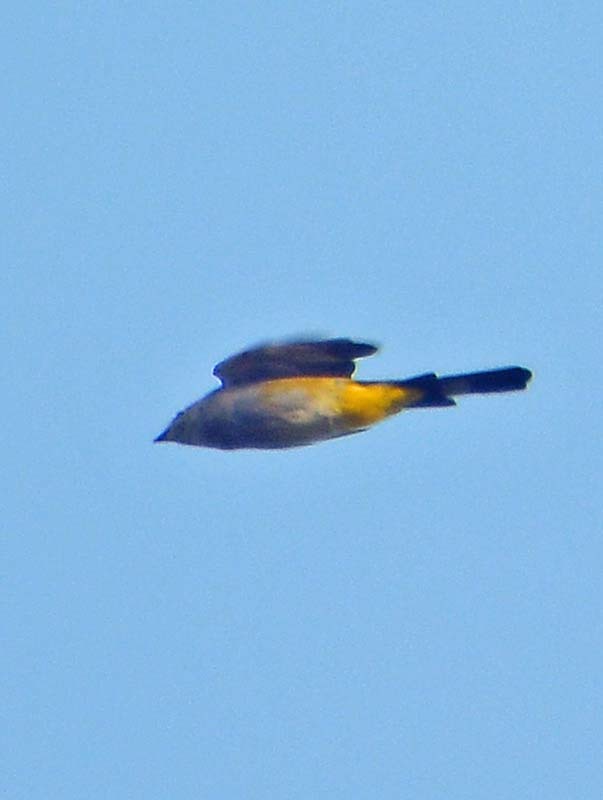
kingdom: Animalia
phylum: Chordata
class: Aves
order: Passeriformes
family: Ptilogonatidae
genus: Ptilogonys
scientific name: Ptilogonys cinereus
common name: Gray silky-flycatcher
